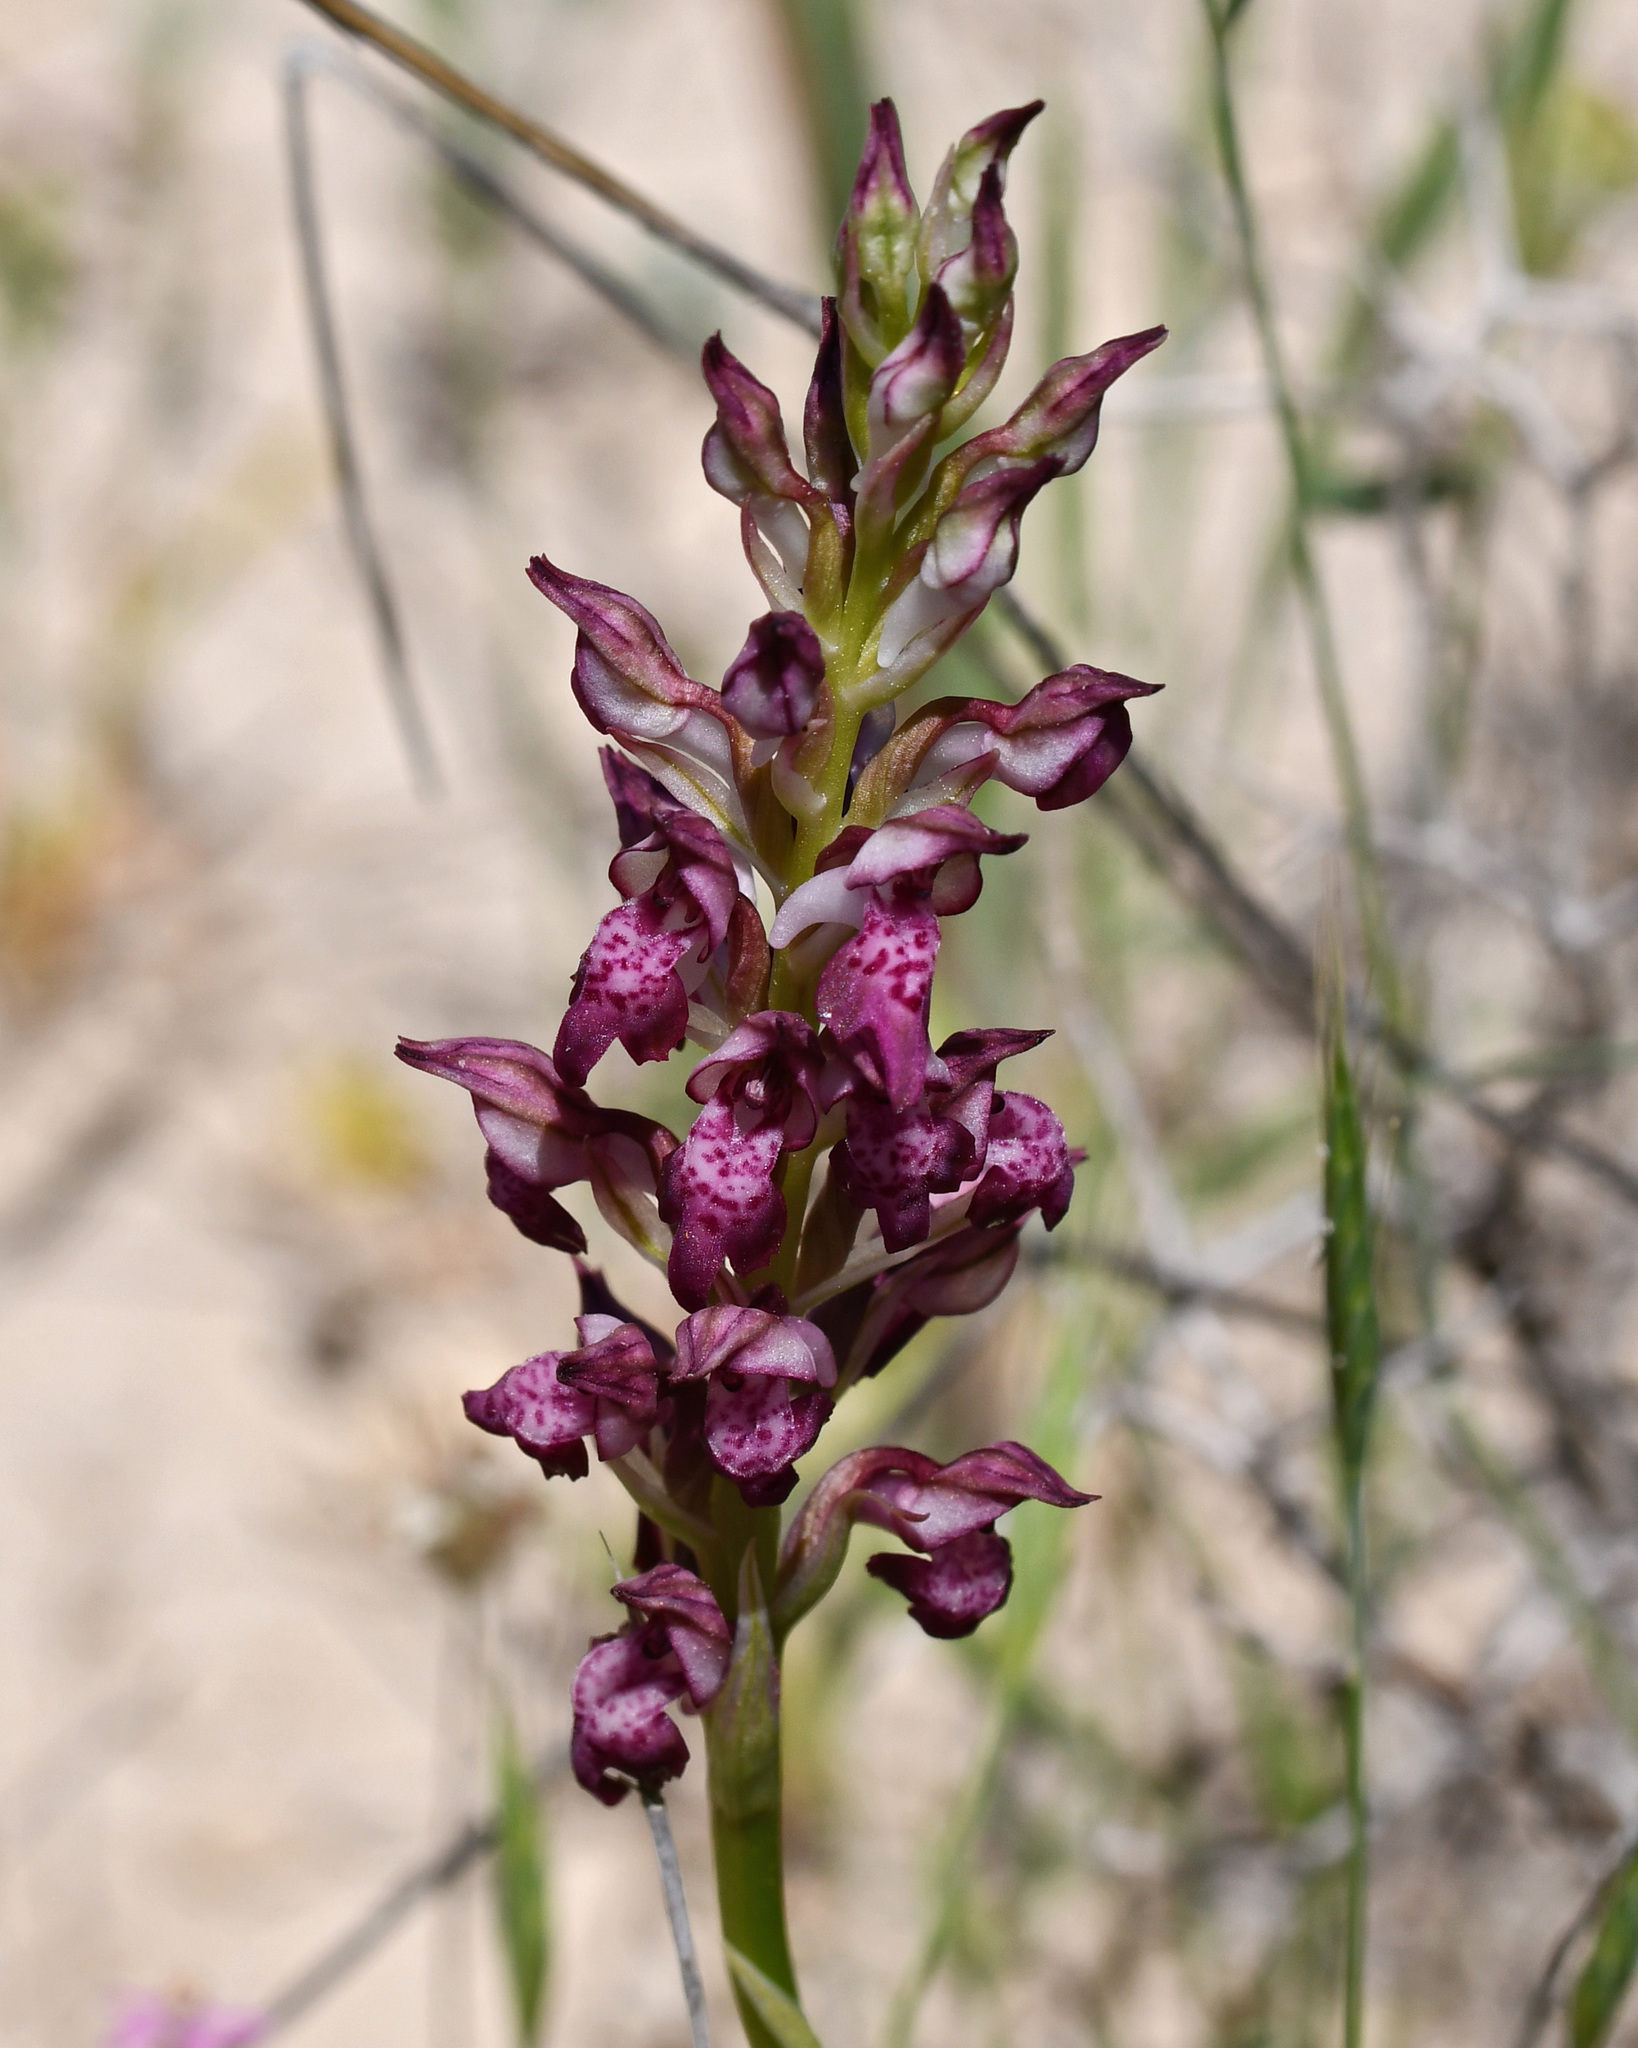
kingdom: Plantae
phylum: Tracheophyta
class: Liliopsida
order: Asparagales
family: Orchidaceae
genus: Anacamptis
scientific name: Anacamptis coriophora
